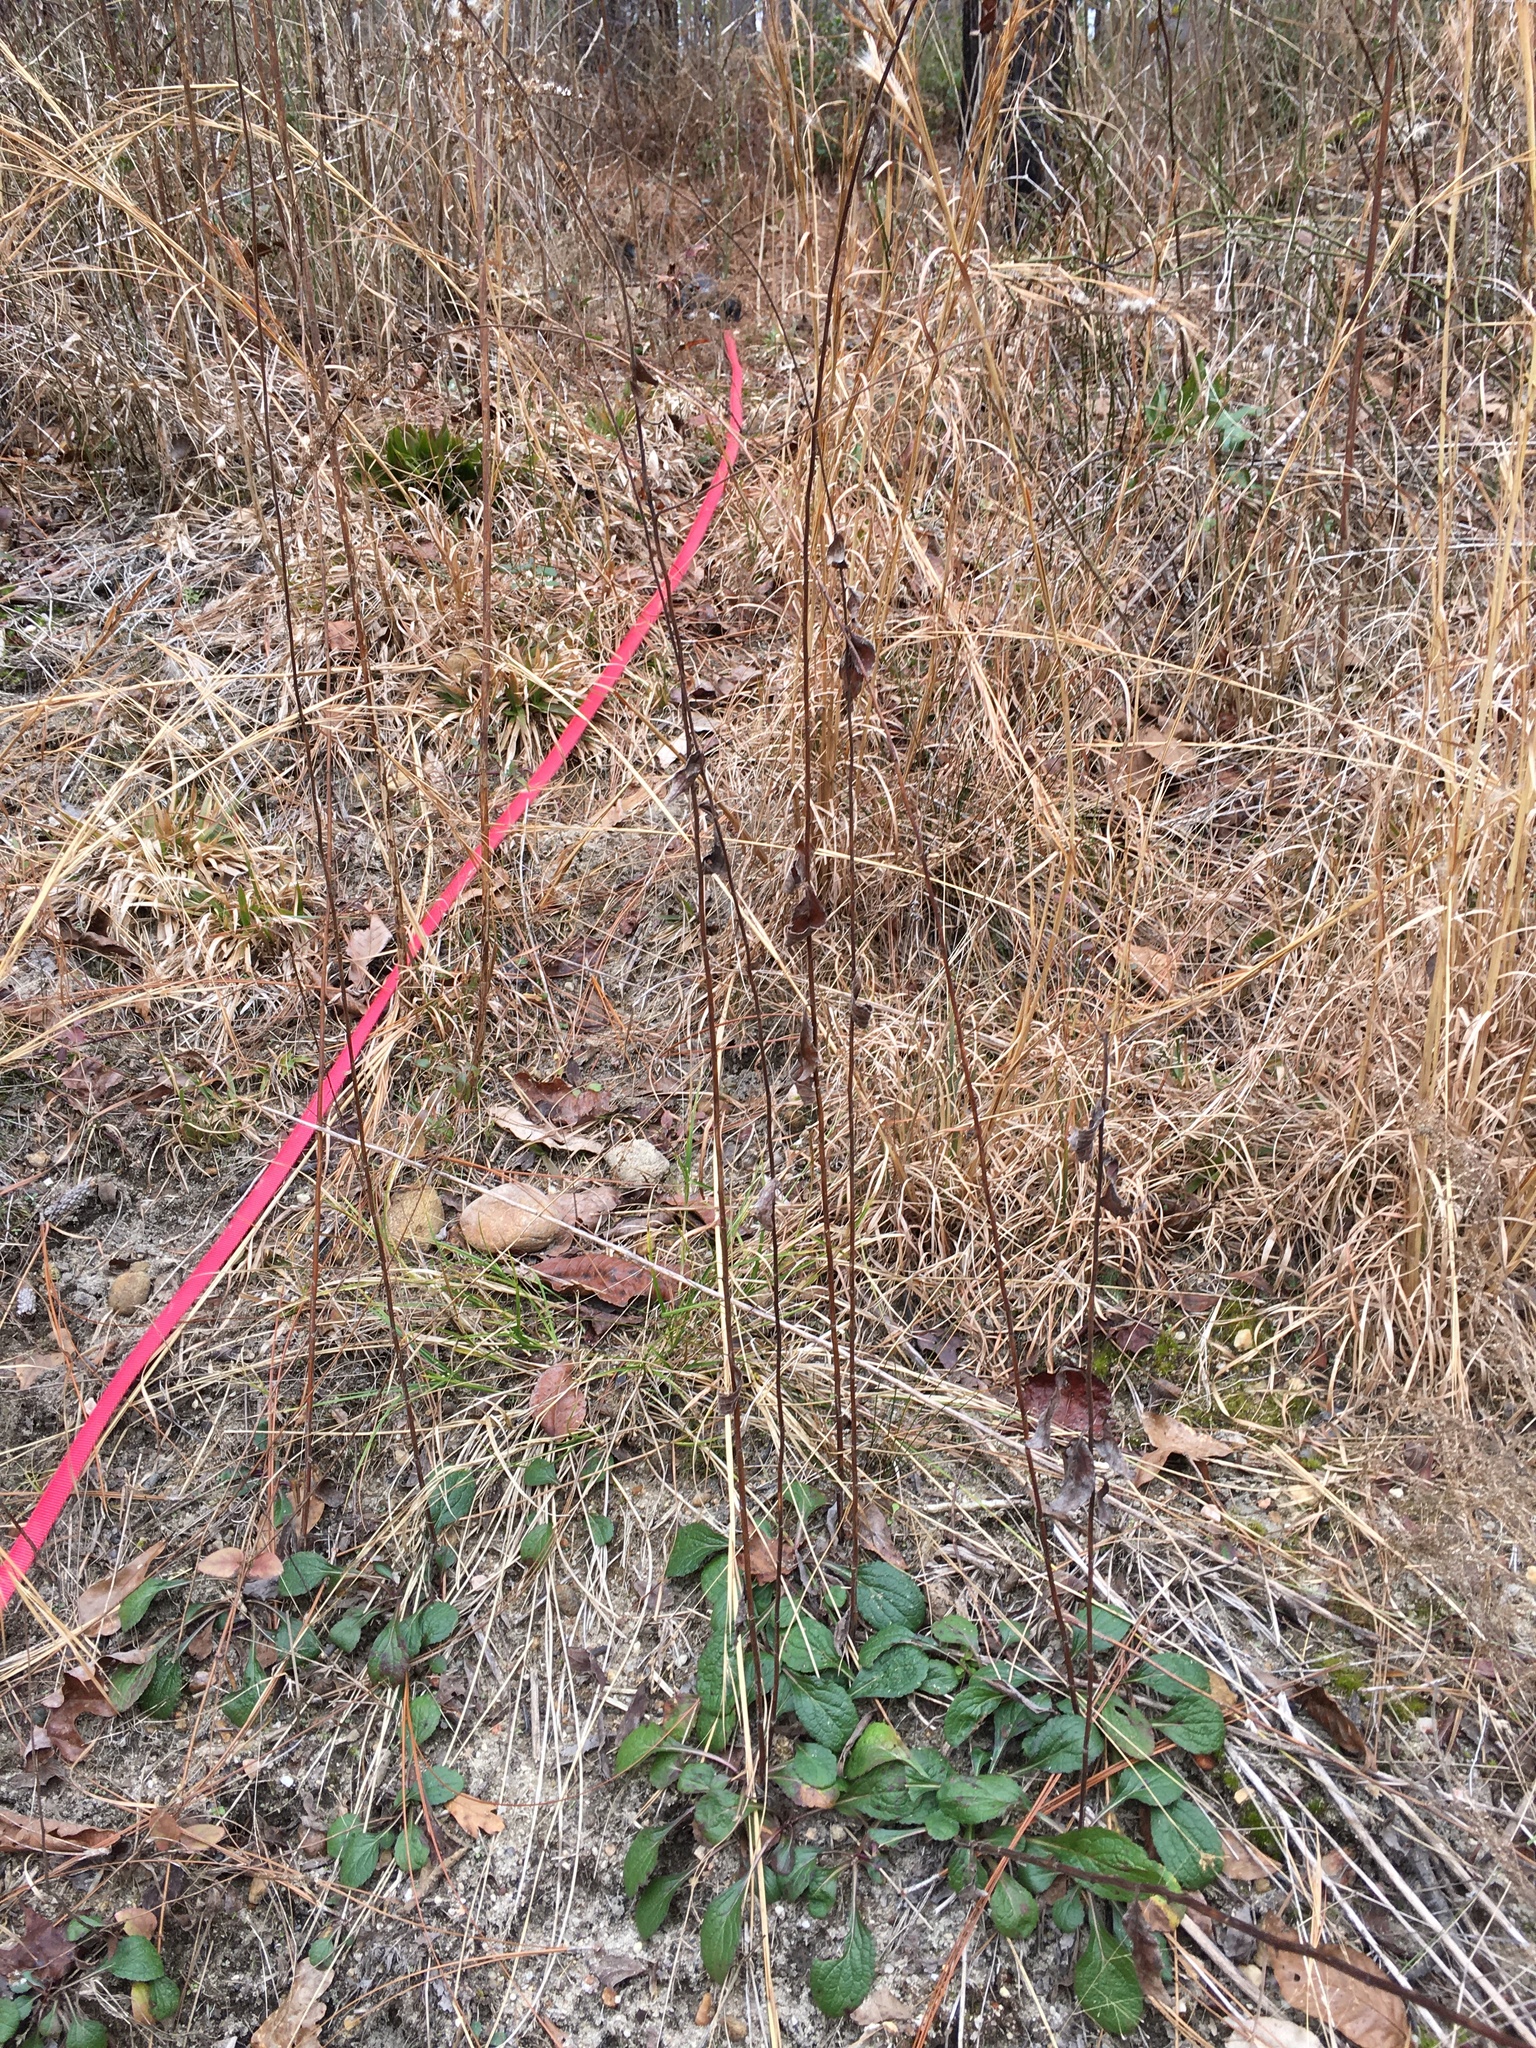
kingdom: Plantae
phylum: Tracheophyta
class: Magnoliopsida
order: Asterales
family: Asteraceae
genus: Solidago
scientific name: Solidago rugosa
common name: Rough-stemmed goldenrod
